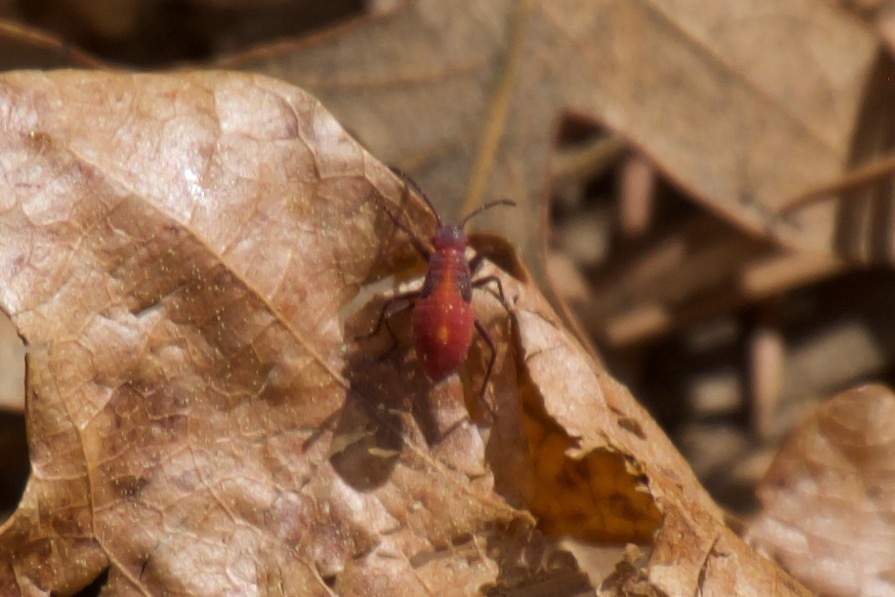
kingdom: Animalia
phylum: Arthropoda
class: Insecta
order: Hemiptera
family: Rhopalidae
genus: Boisea
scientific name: Boisea trivittata
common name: Boxelder bug
